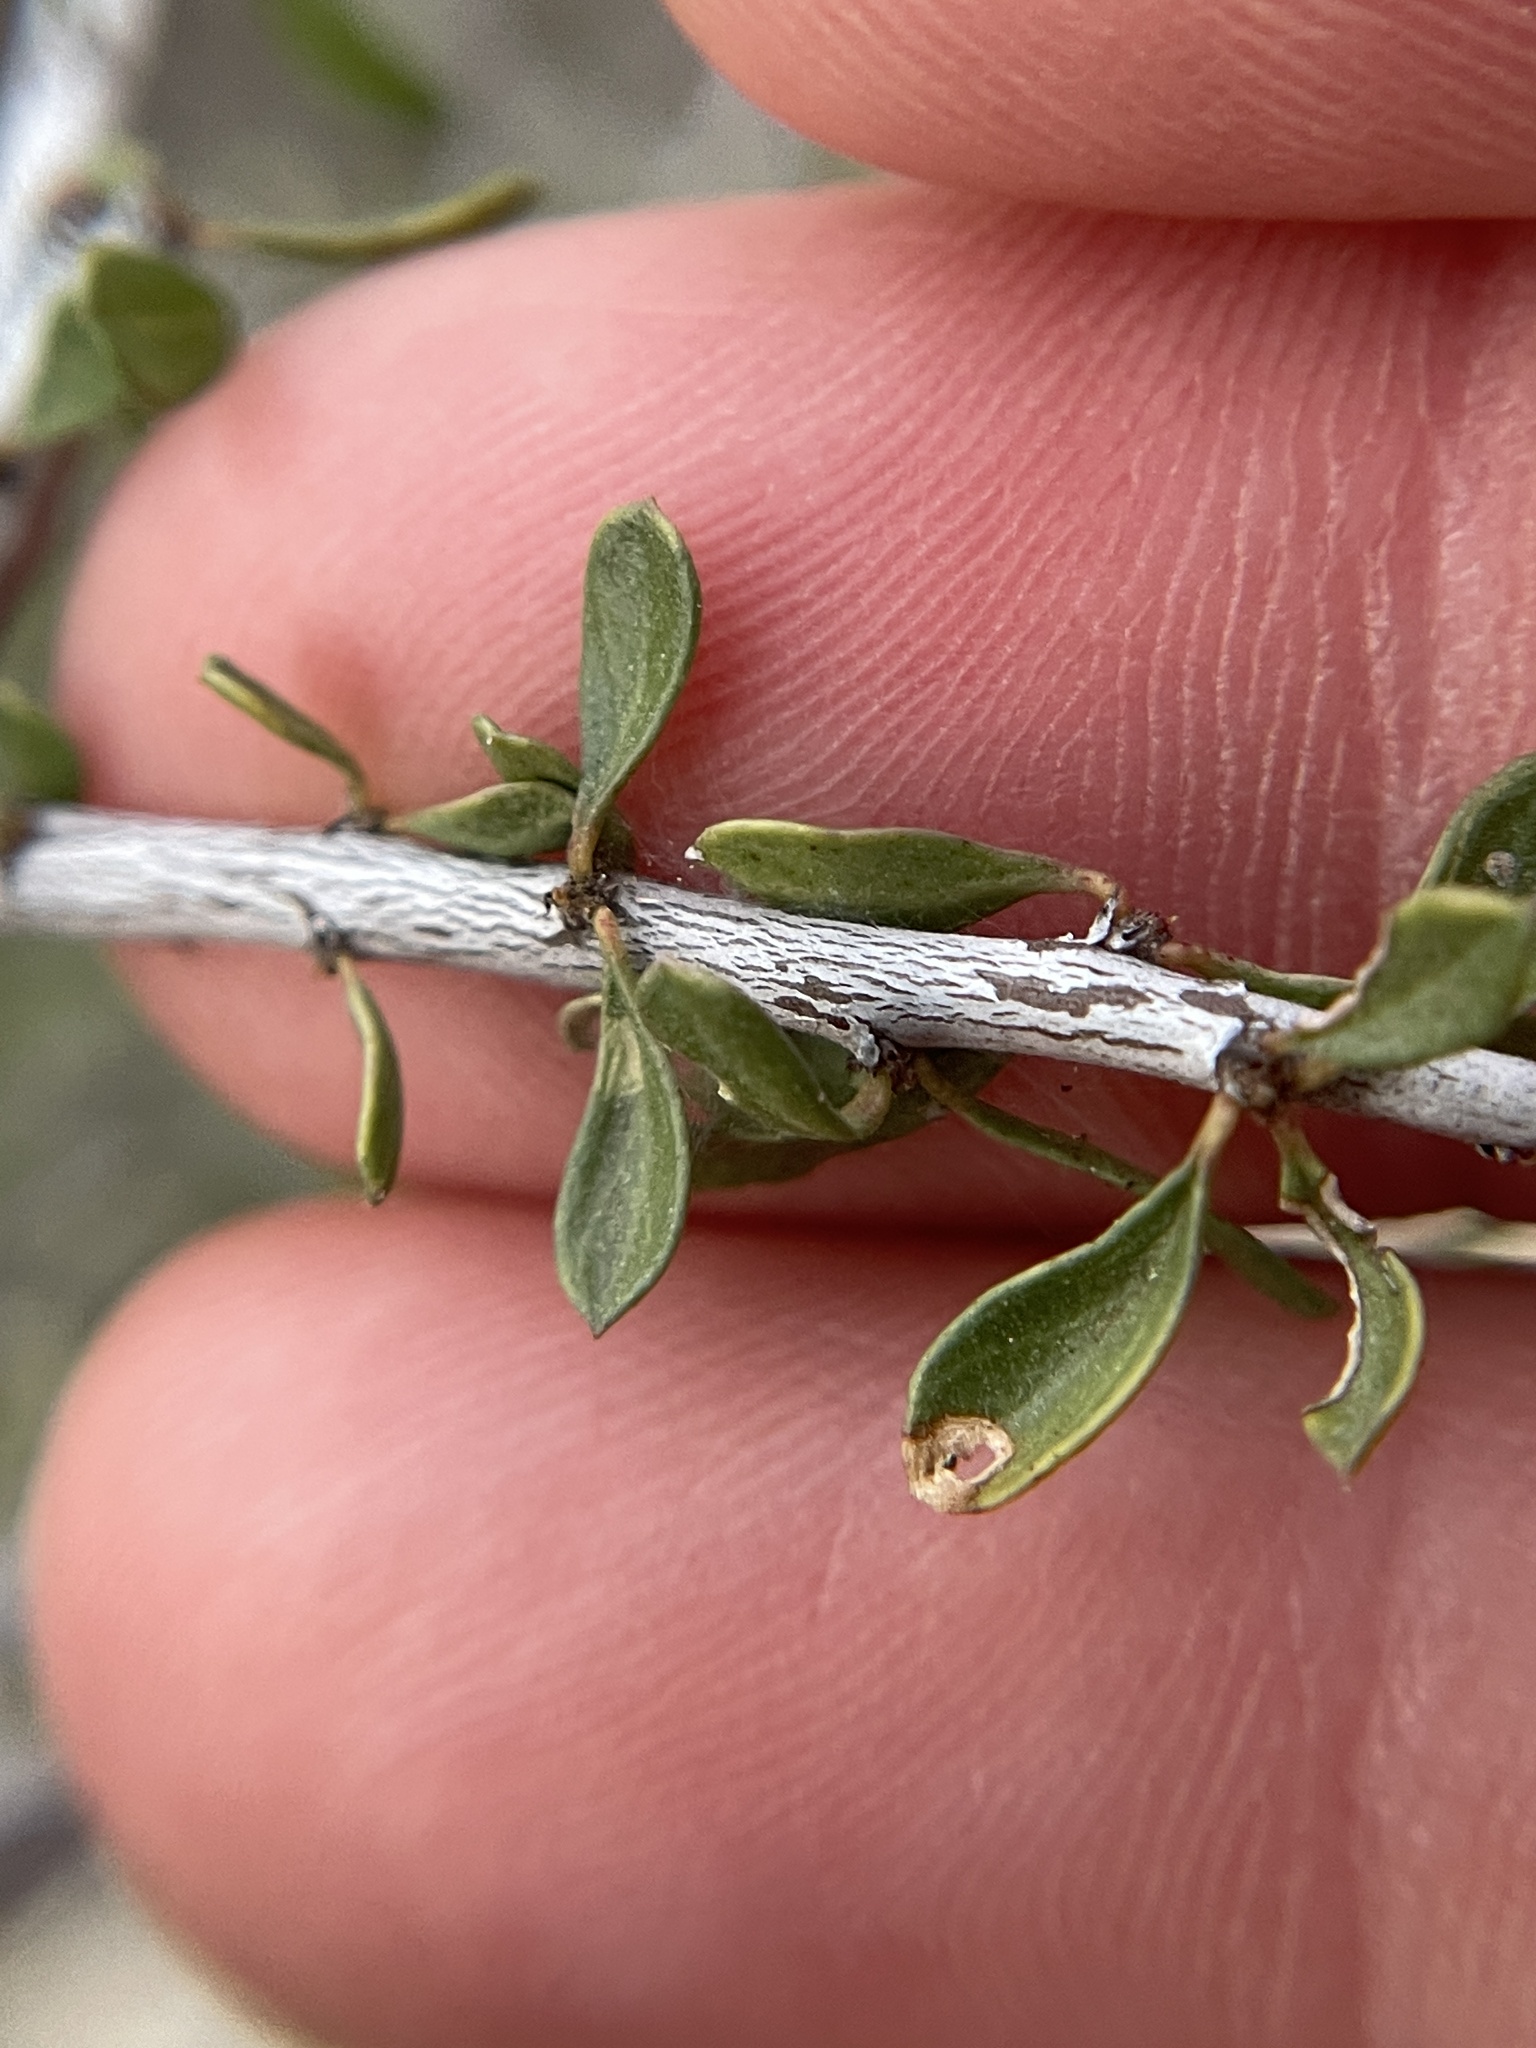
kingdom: Plantae
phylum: Tracheophyta
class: Magnoliopsida
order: Rosales
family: Rhamnaceae
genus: Condalia
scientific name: Condalia viridis
